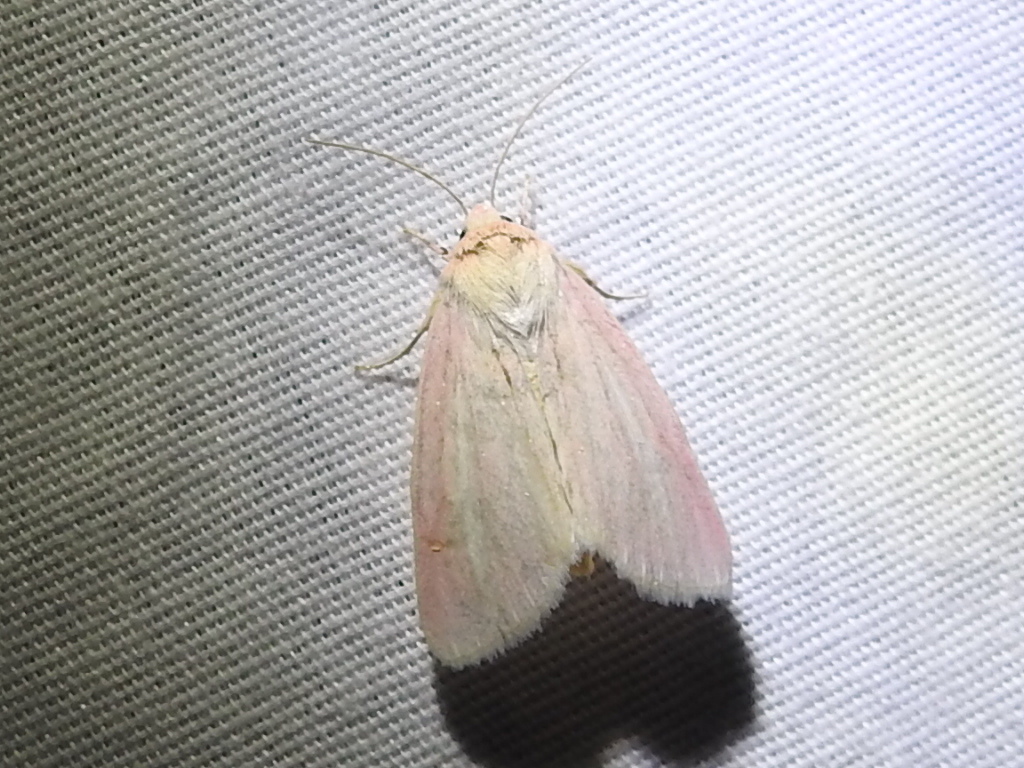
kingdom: Animalia
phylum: Arthropoda
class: Insecta
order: Lepidoptera
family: Noctuidae
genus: Heliocheilus
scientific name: Heliocheilus julia
